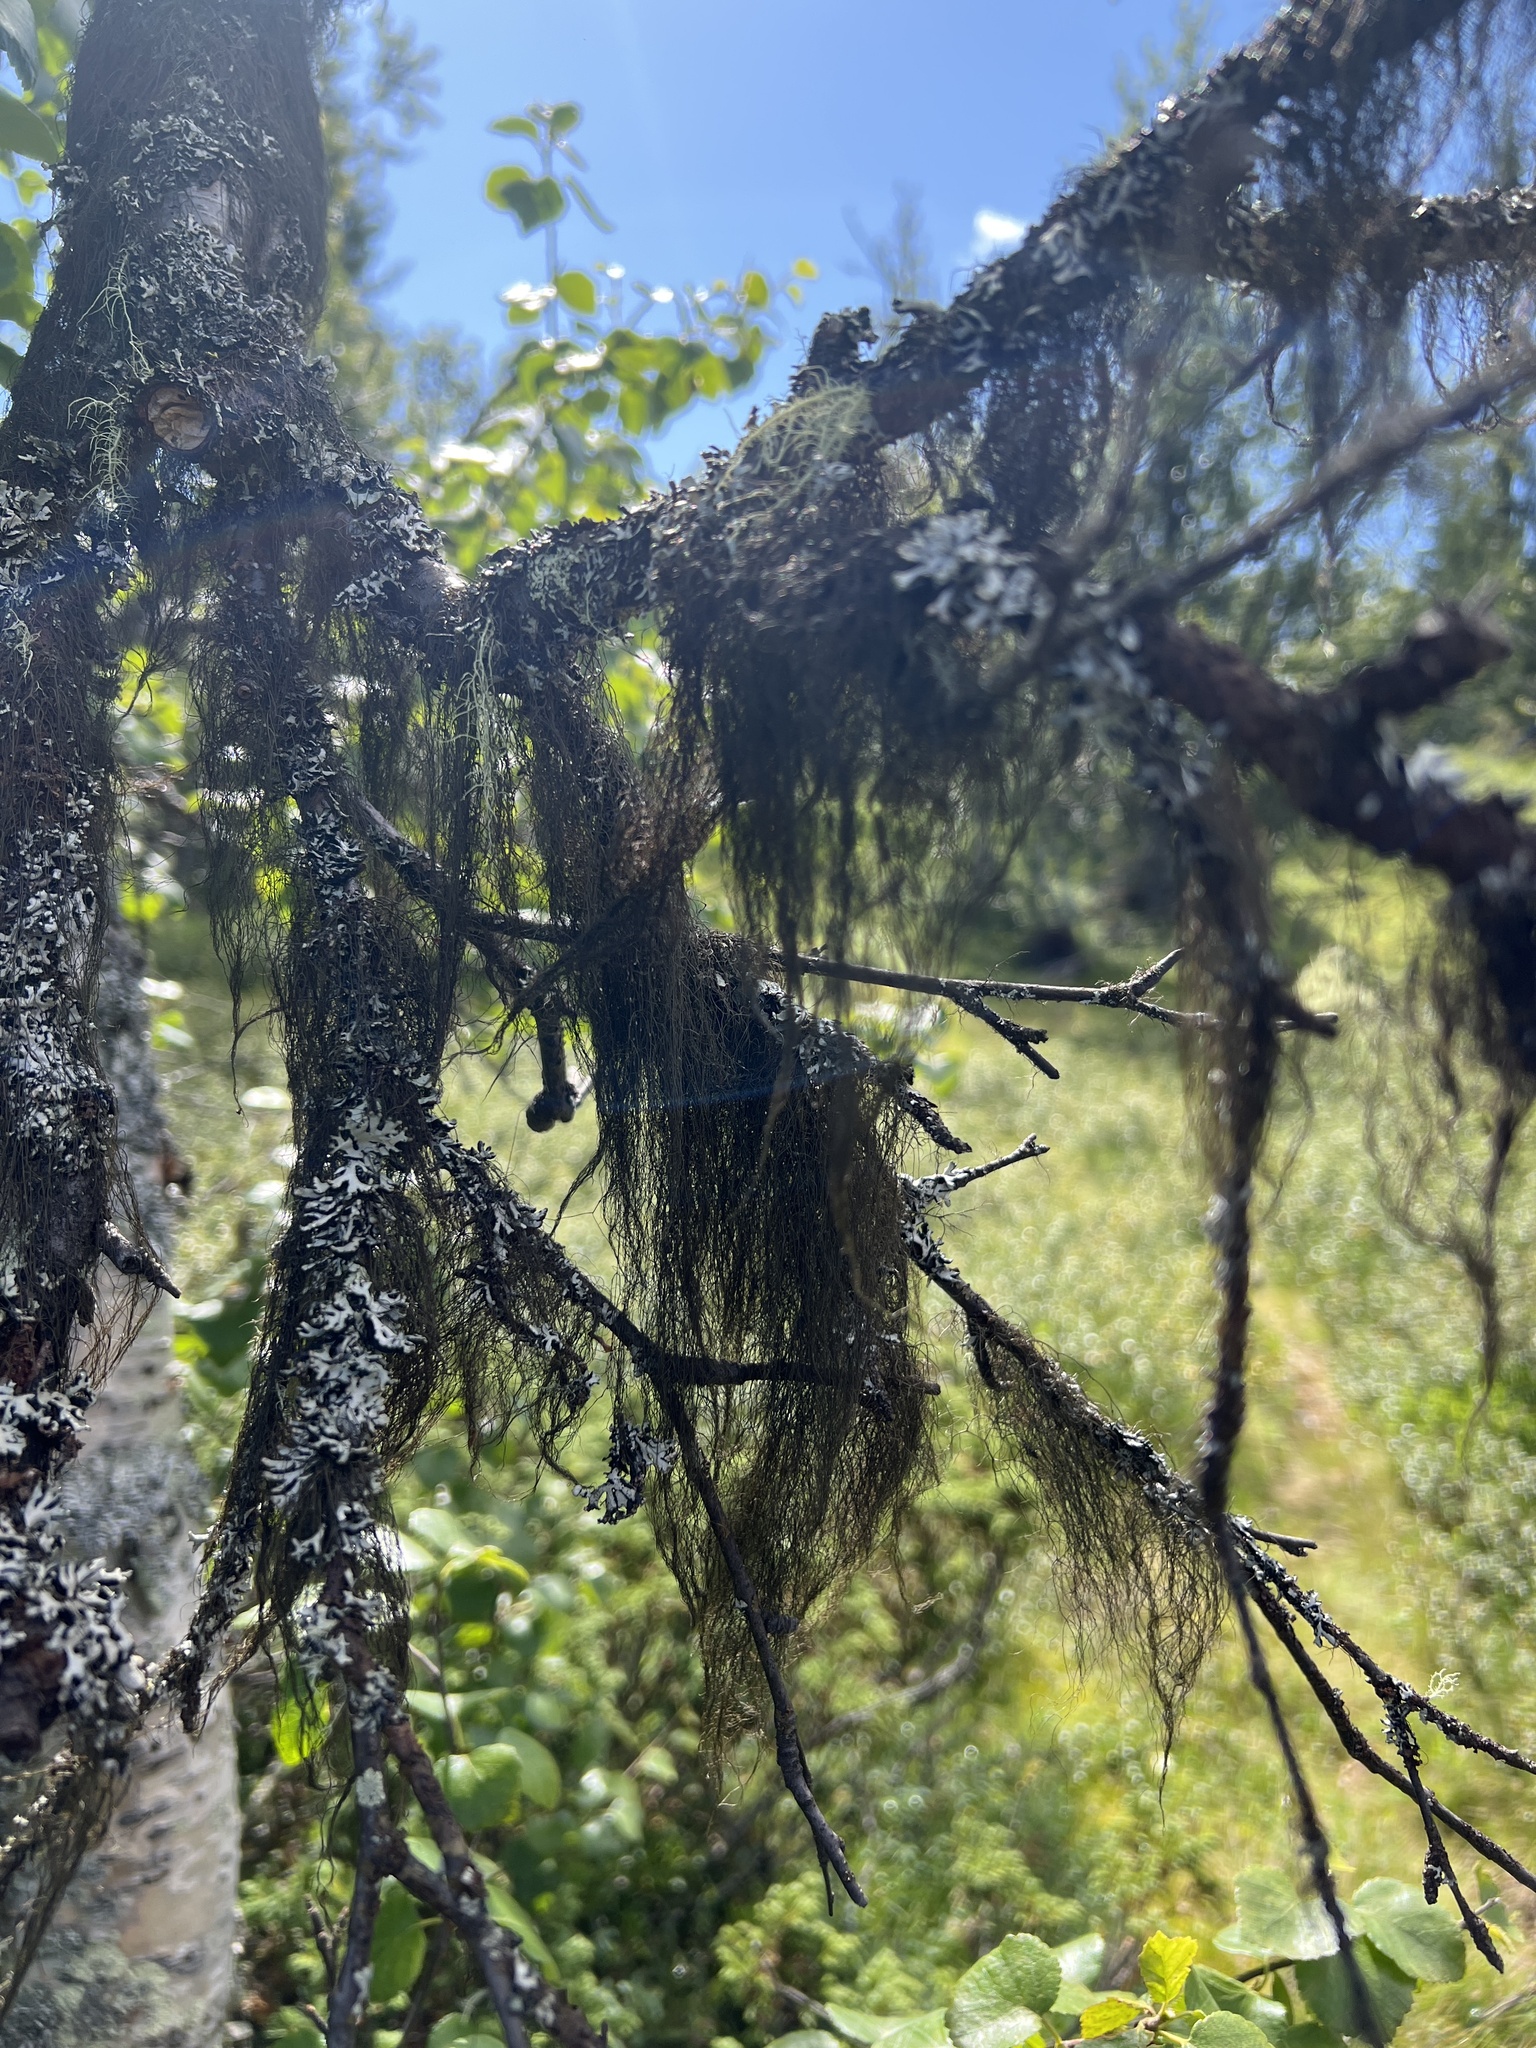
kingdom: Fungi
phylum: Ascomycota
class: Lecanoromycetes
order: Lecanorales
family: Parmeliaceae
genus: Bryoria
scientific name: Bryoria fuscescens
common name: Pale-footed horsehair lichen
